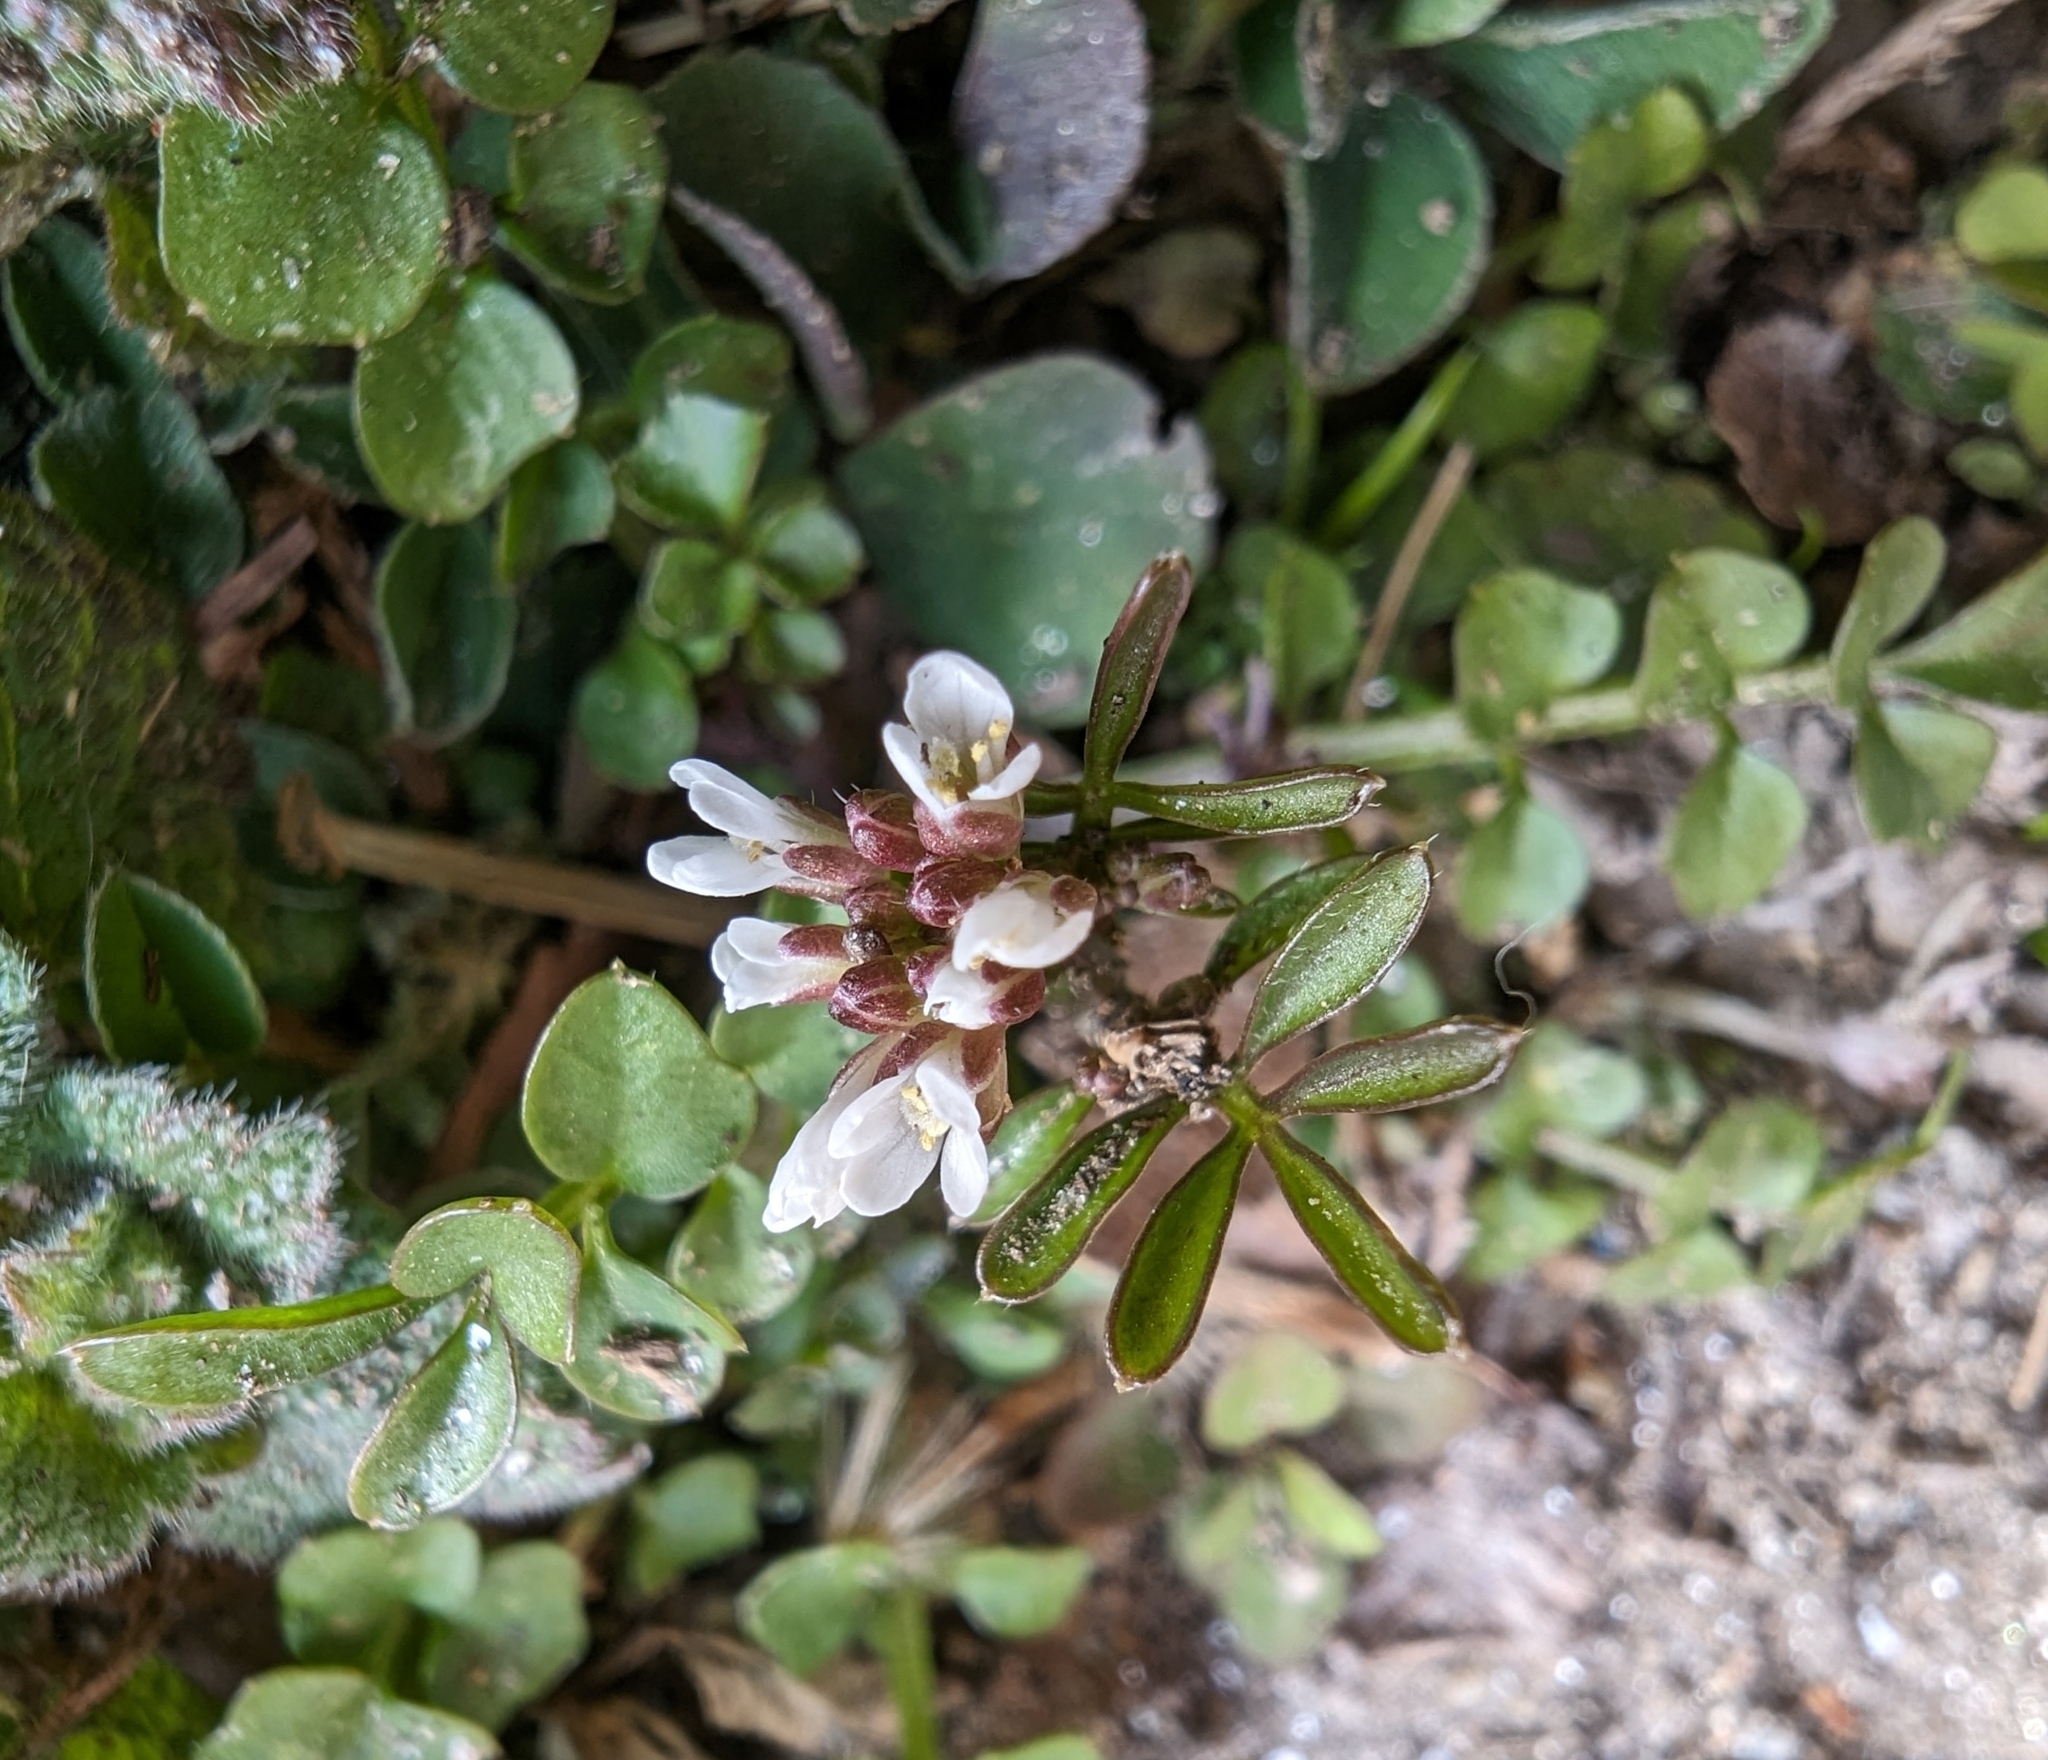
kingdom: Plantae
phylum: Tracheophyta
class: Magnoliopsida
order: Brassicales
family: Brassicaceae
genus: Cardamine
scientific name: Cardamine hirsuta
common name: Hairy bittercress
